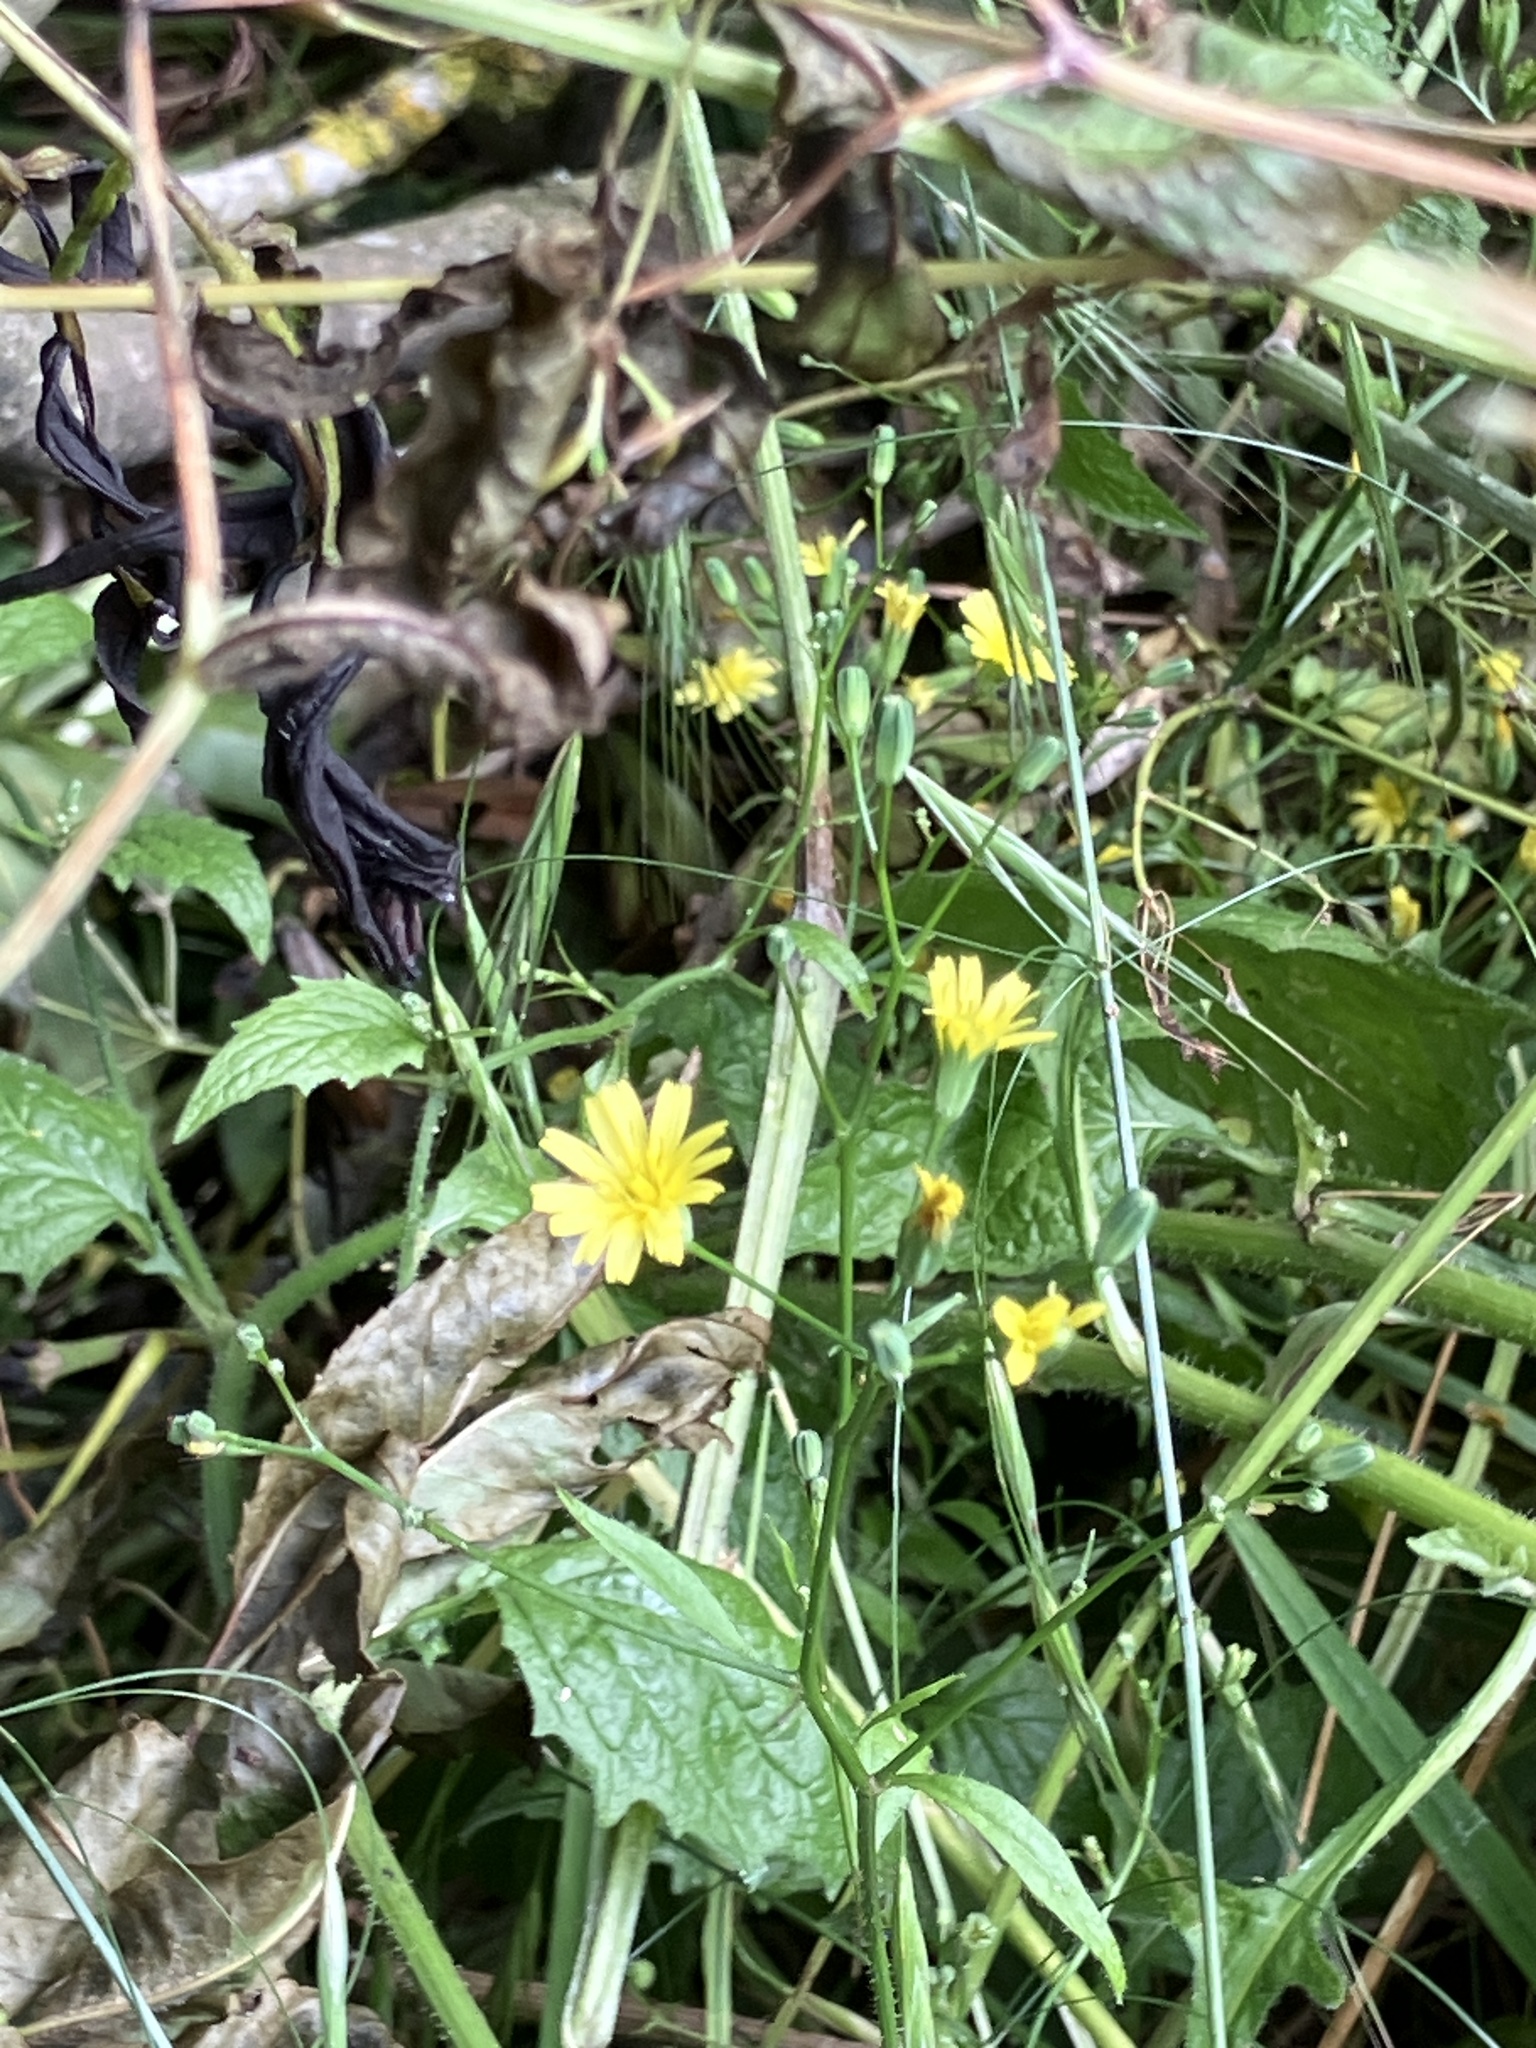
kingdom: Plantae
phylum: Tracheophyta
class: Magnoliopsida
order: Asterales
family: Asteraceae
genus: Lapsana
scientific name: Lapsana communis
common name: Nipplewort
